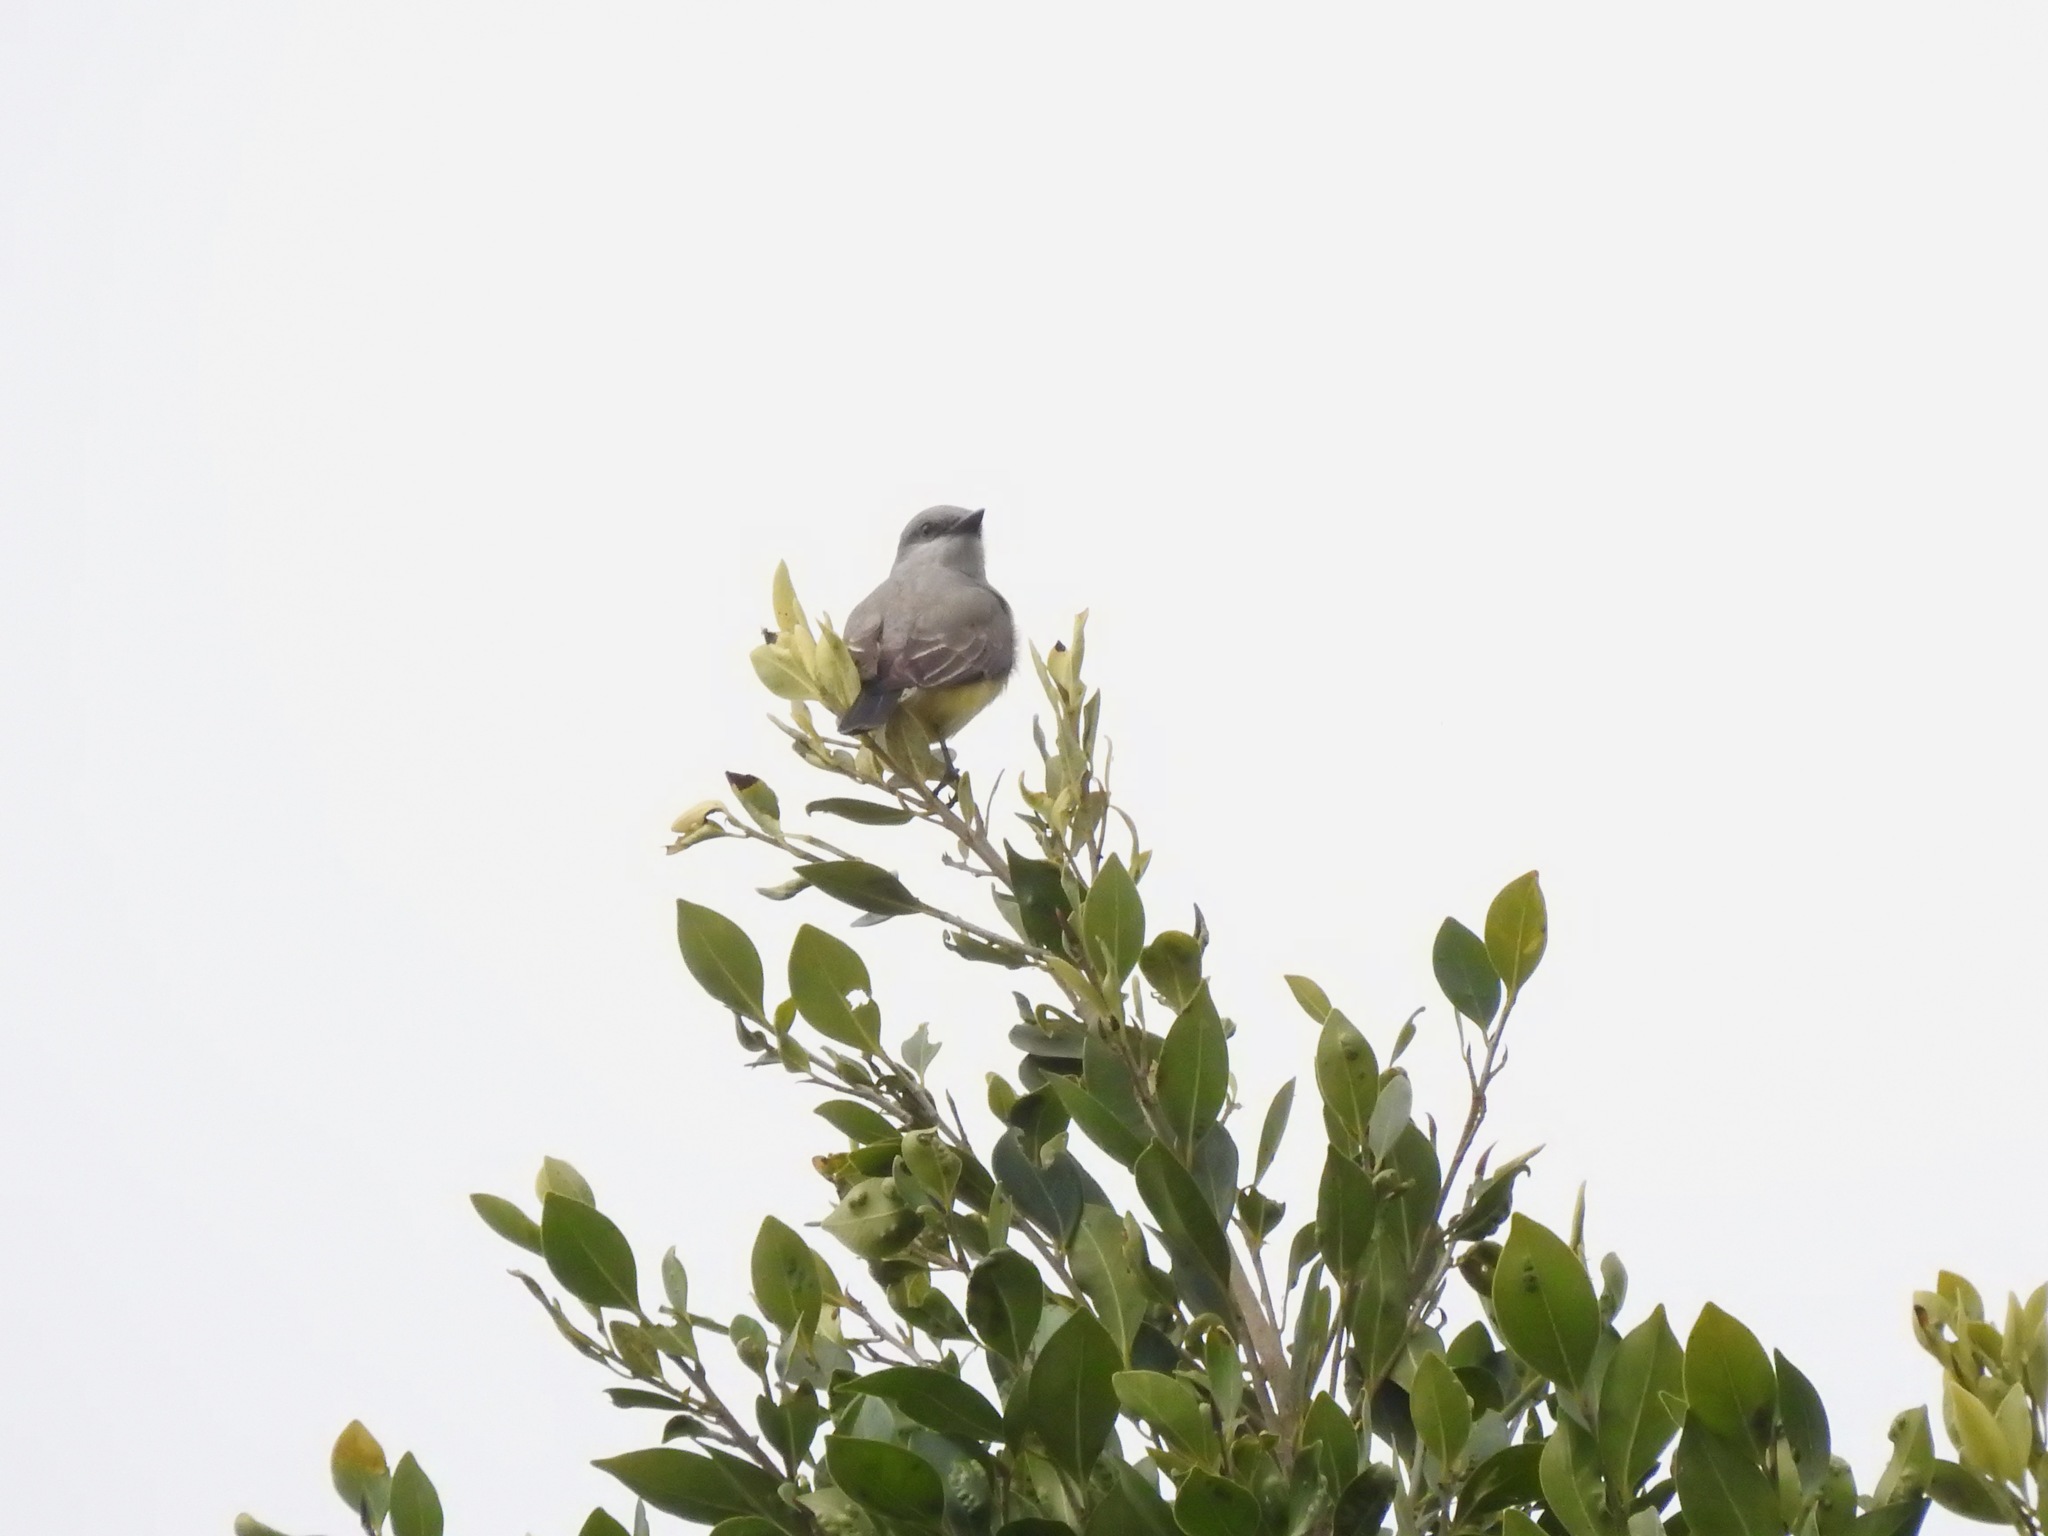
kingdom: Animalia
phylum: Chordata
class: Aves
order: Passeriformes
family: Tyrannidae
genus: Tyrannus
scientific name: Tyrannus verticalis
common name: Western kingbird
